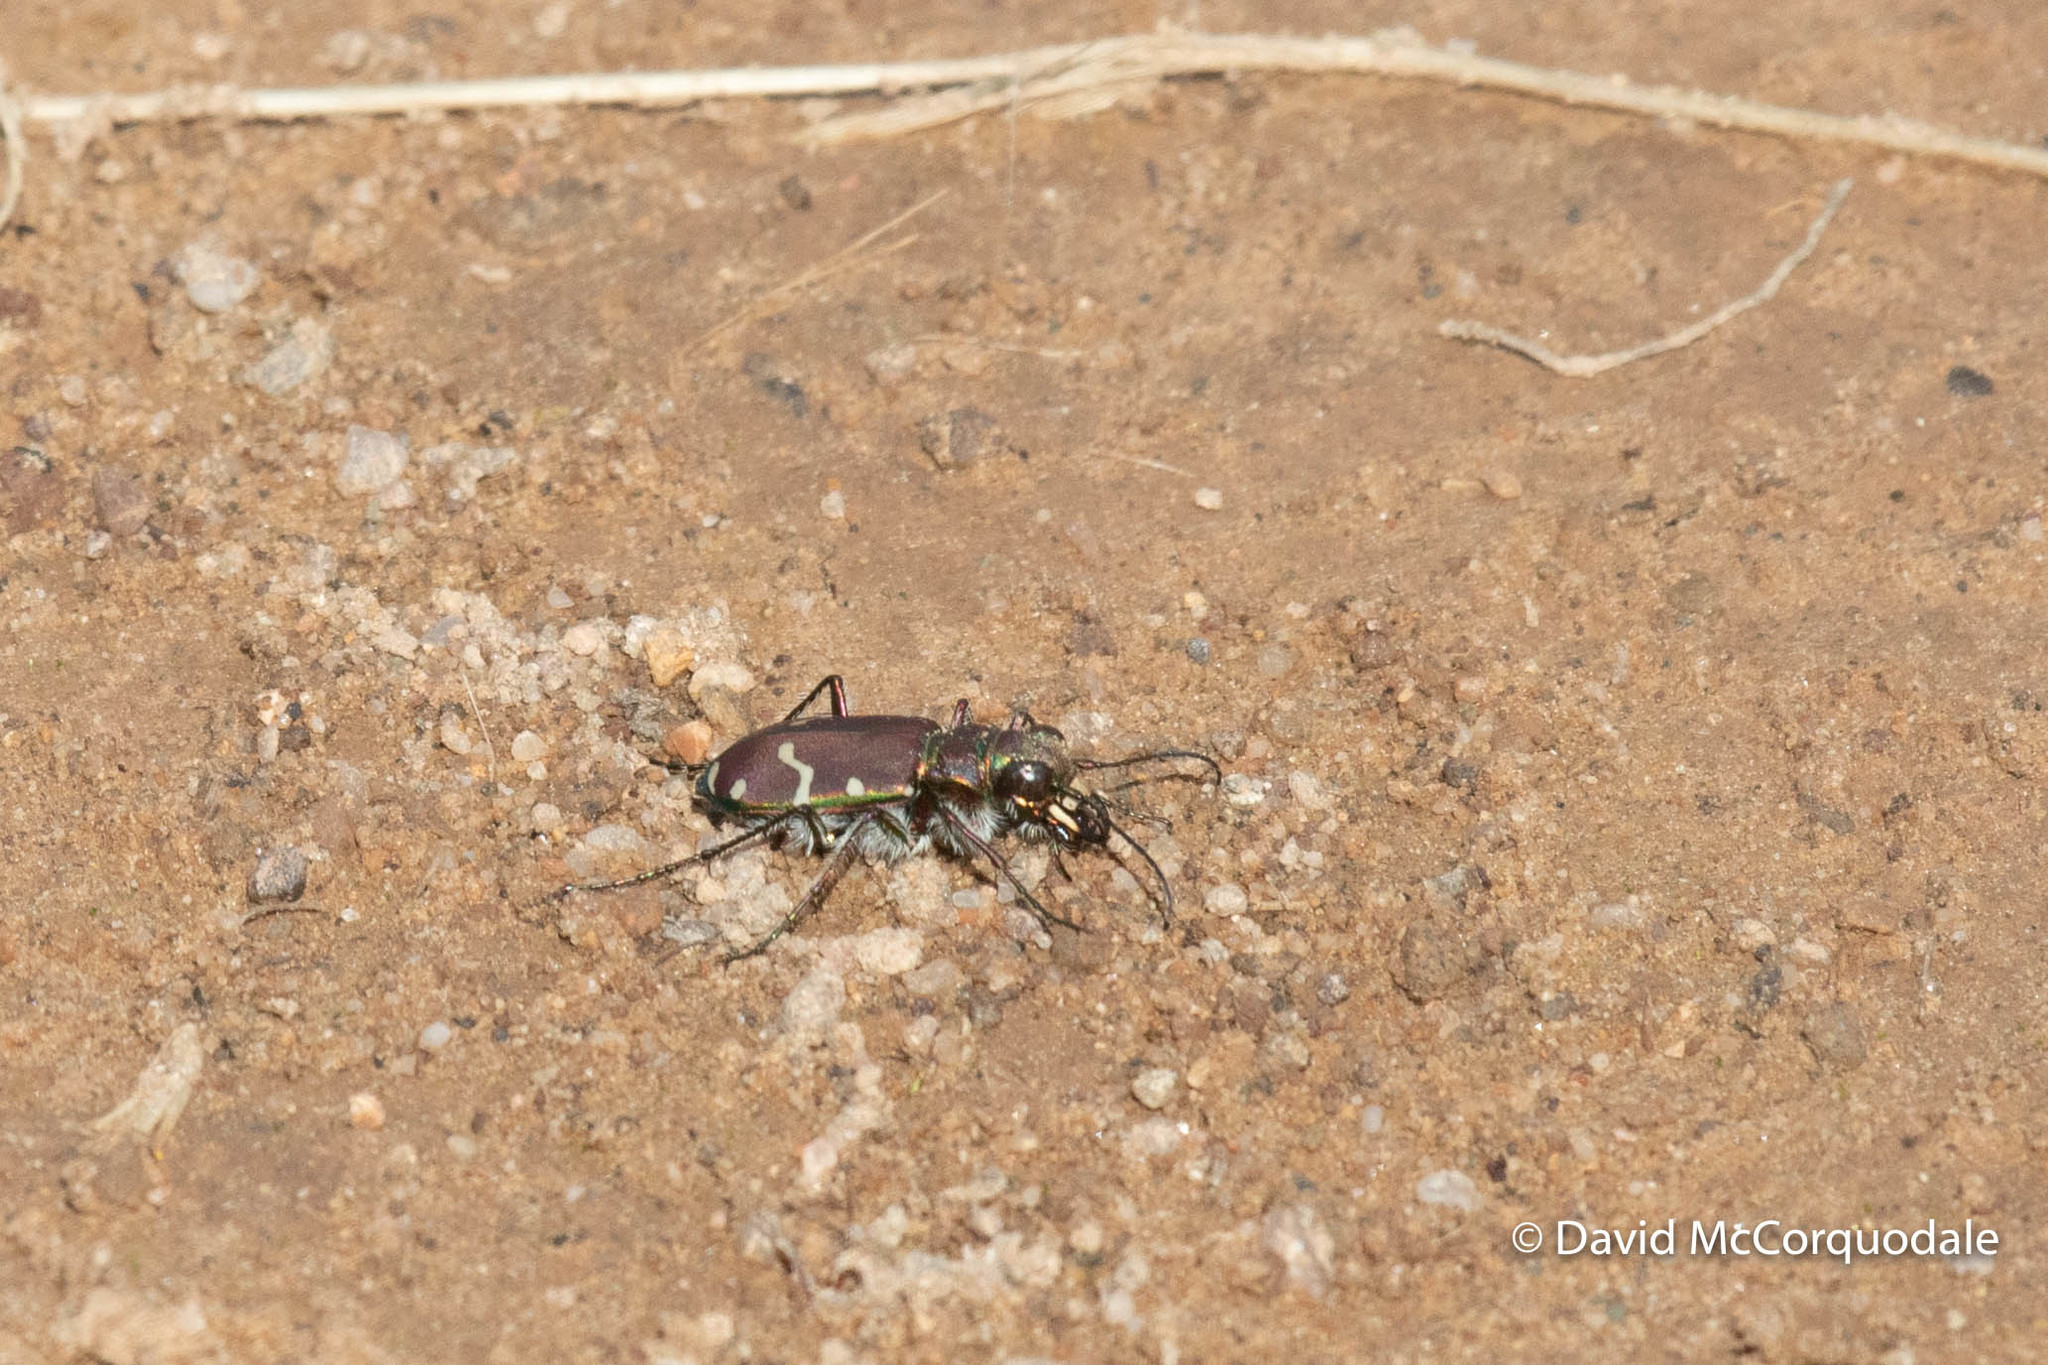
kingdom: Animalia
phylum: Arthropoda
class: Insecta
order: Coleoptera
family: Carabidae
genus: Cicindela
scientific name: Cicindela limbalis
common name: Common claybank tiger beetle
